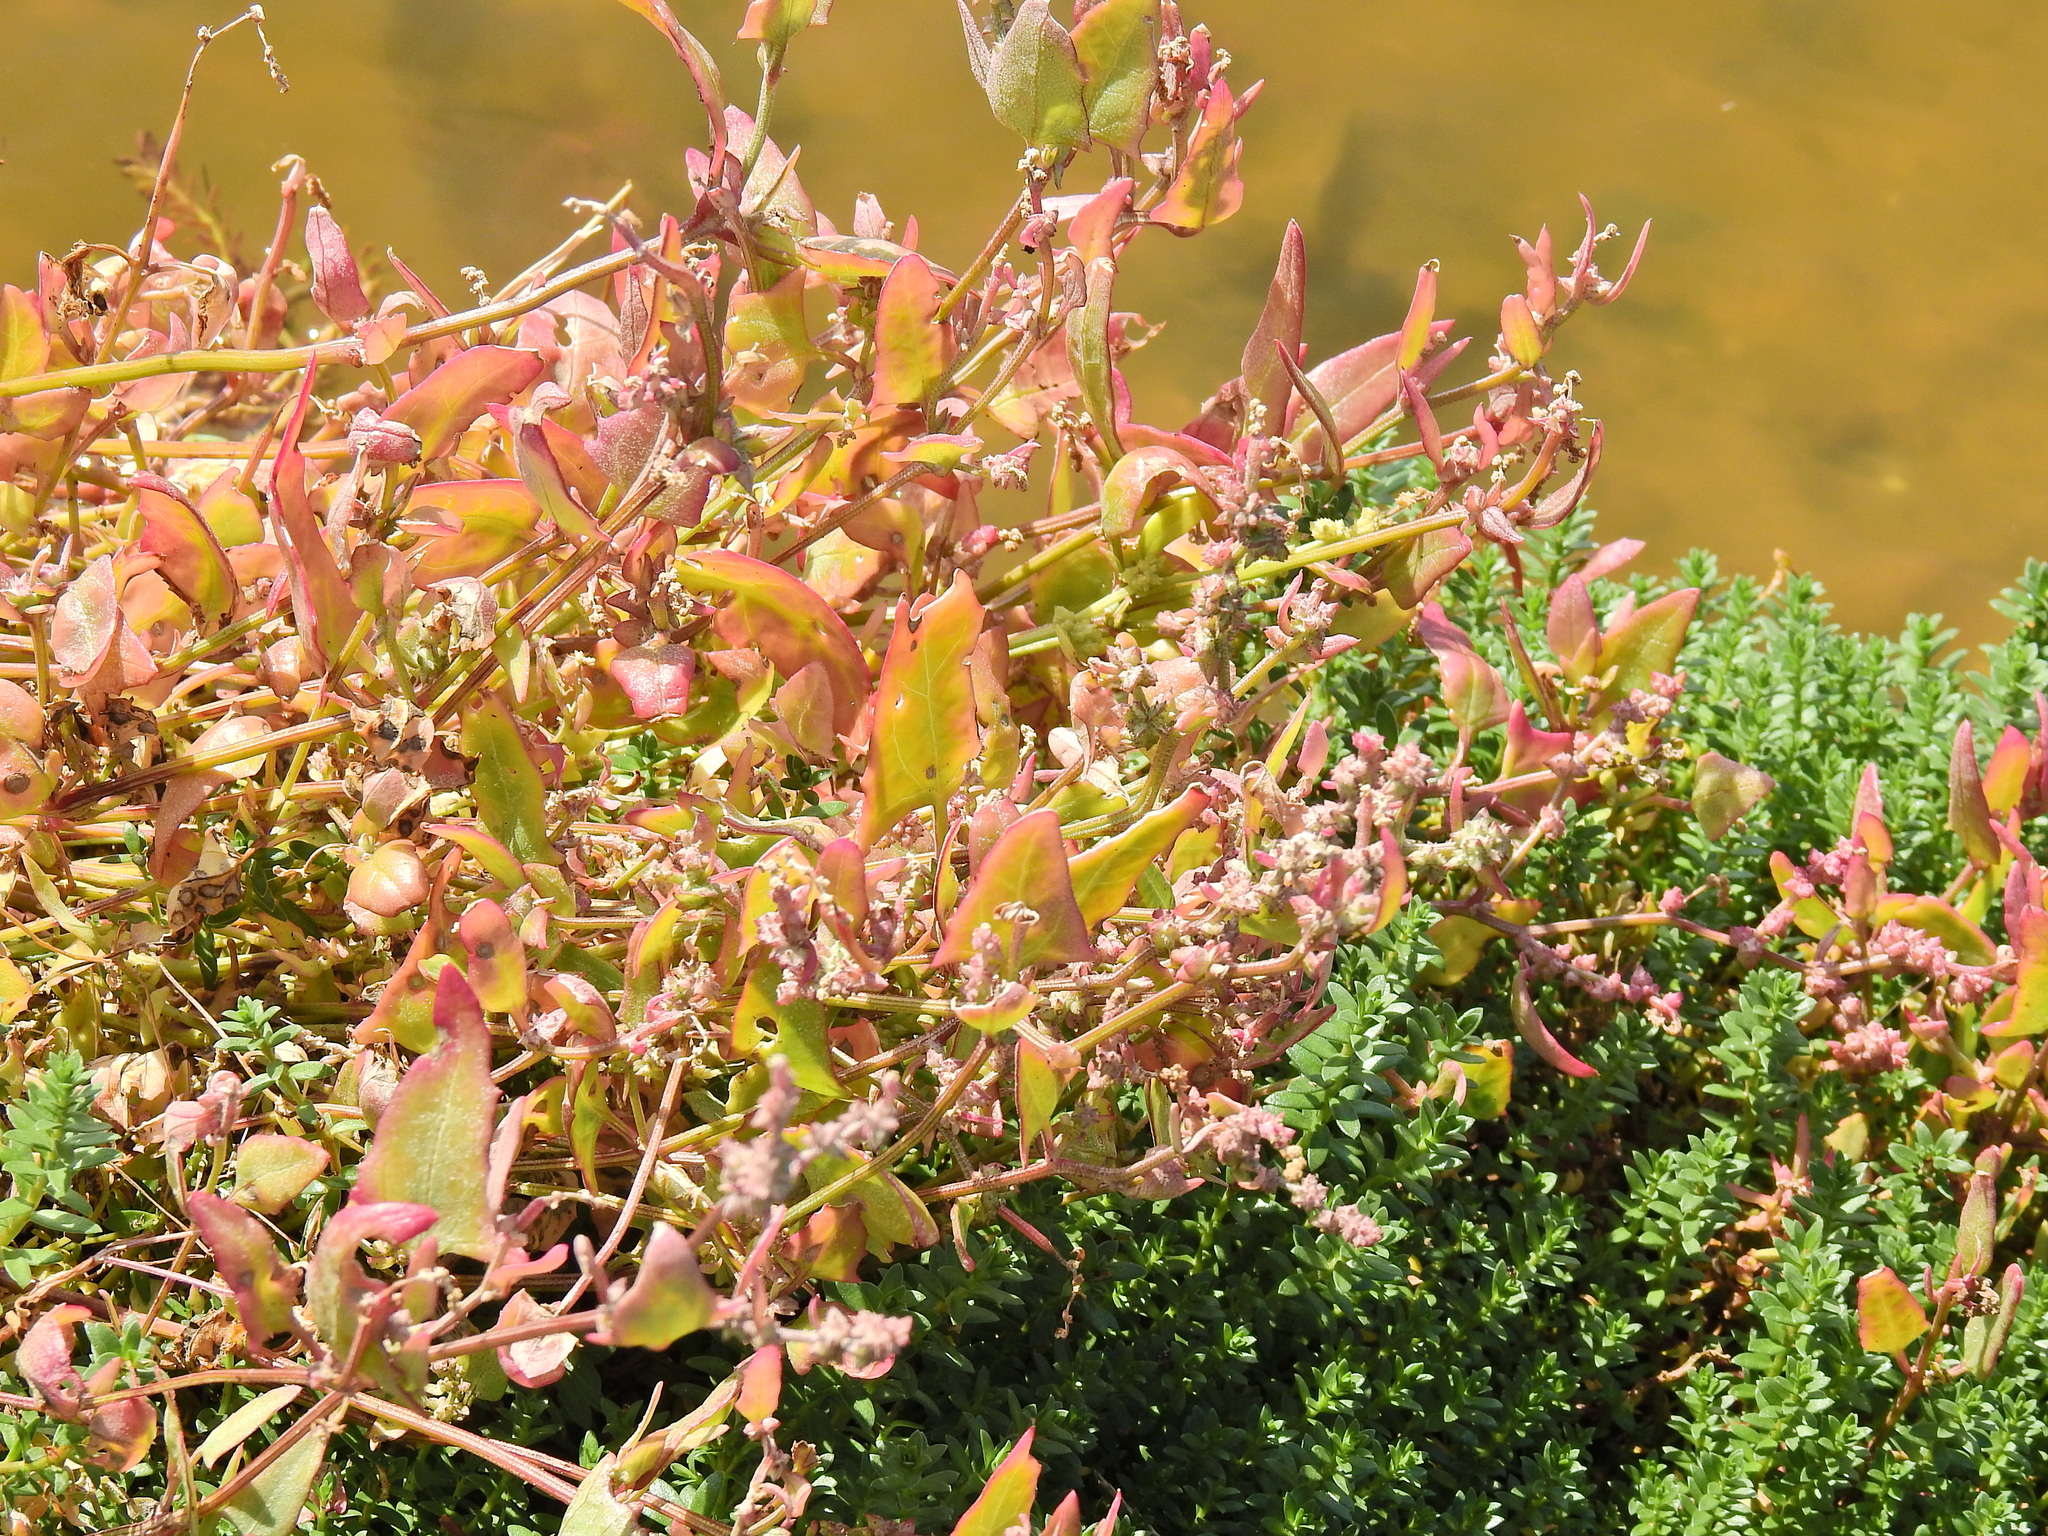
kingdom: Plantae
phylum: Tracheophyta
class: Magnoliopsida
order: Caryophyllales
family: Amaranthaceae
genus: Atriplex
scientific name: Atriplex prostrata
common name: Spear-leaved orache
